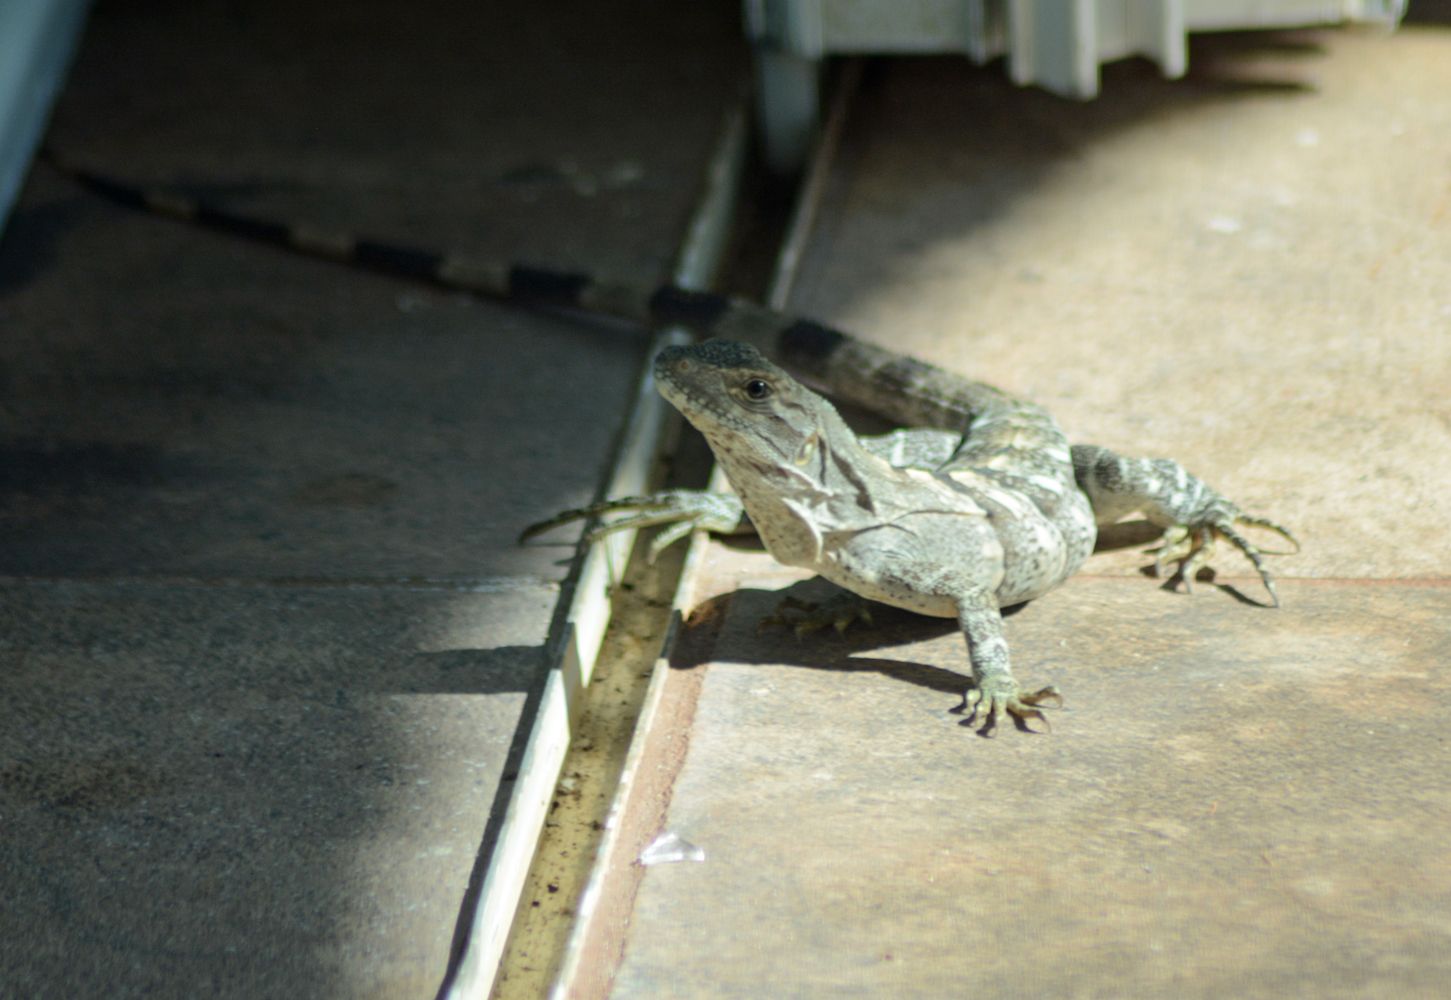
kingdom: Animalia
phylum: Chordata
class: Squamata
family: Iguanidae
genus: Ctenosaura
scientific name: Ctenosaura similis
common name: Black spiny-tailed iguana
